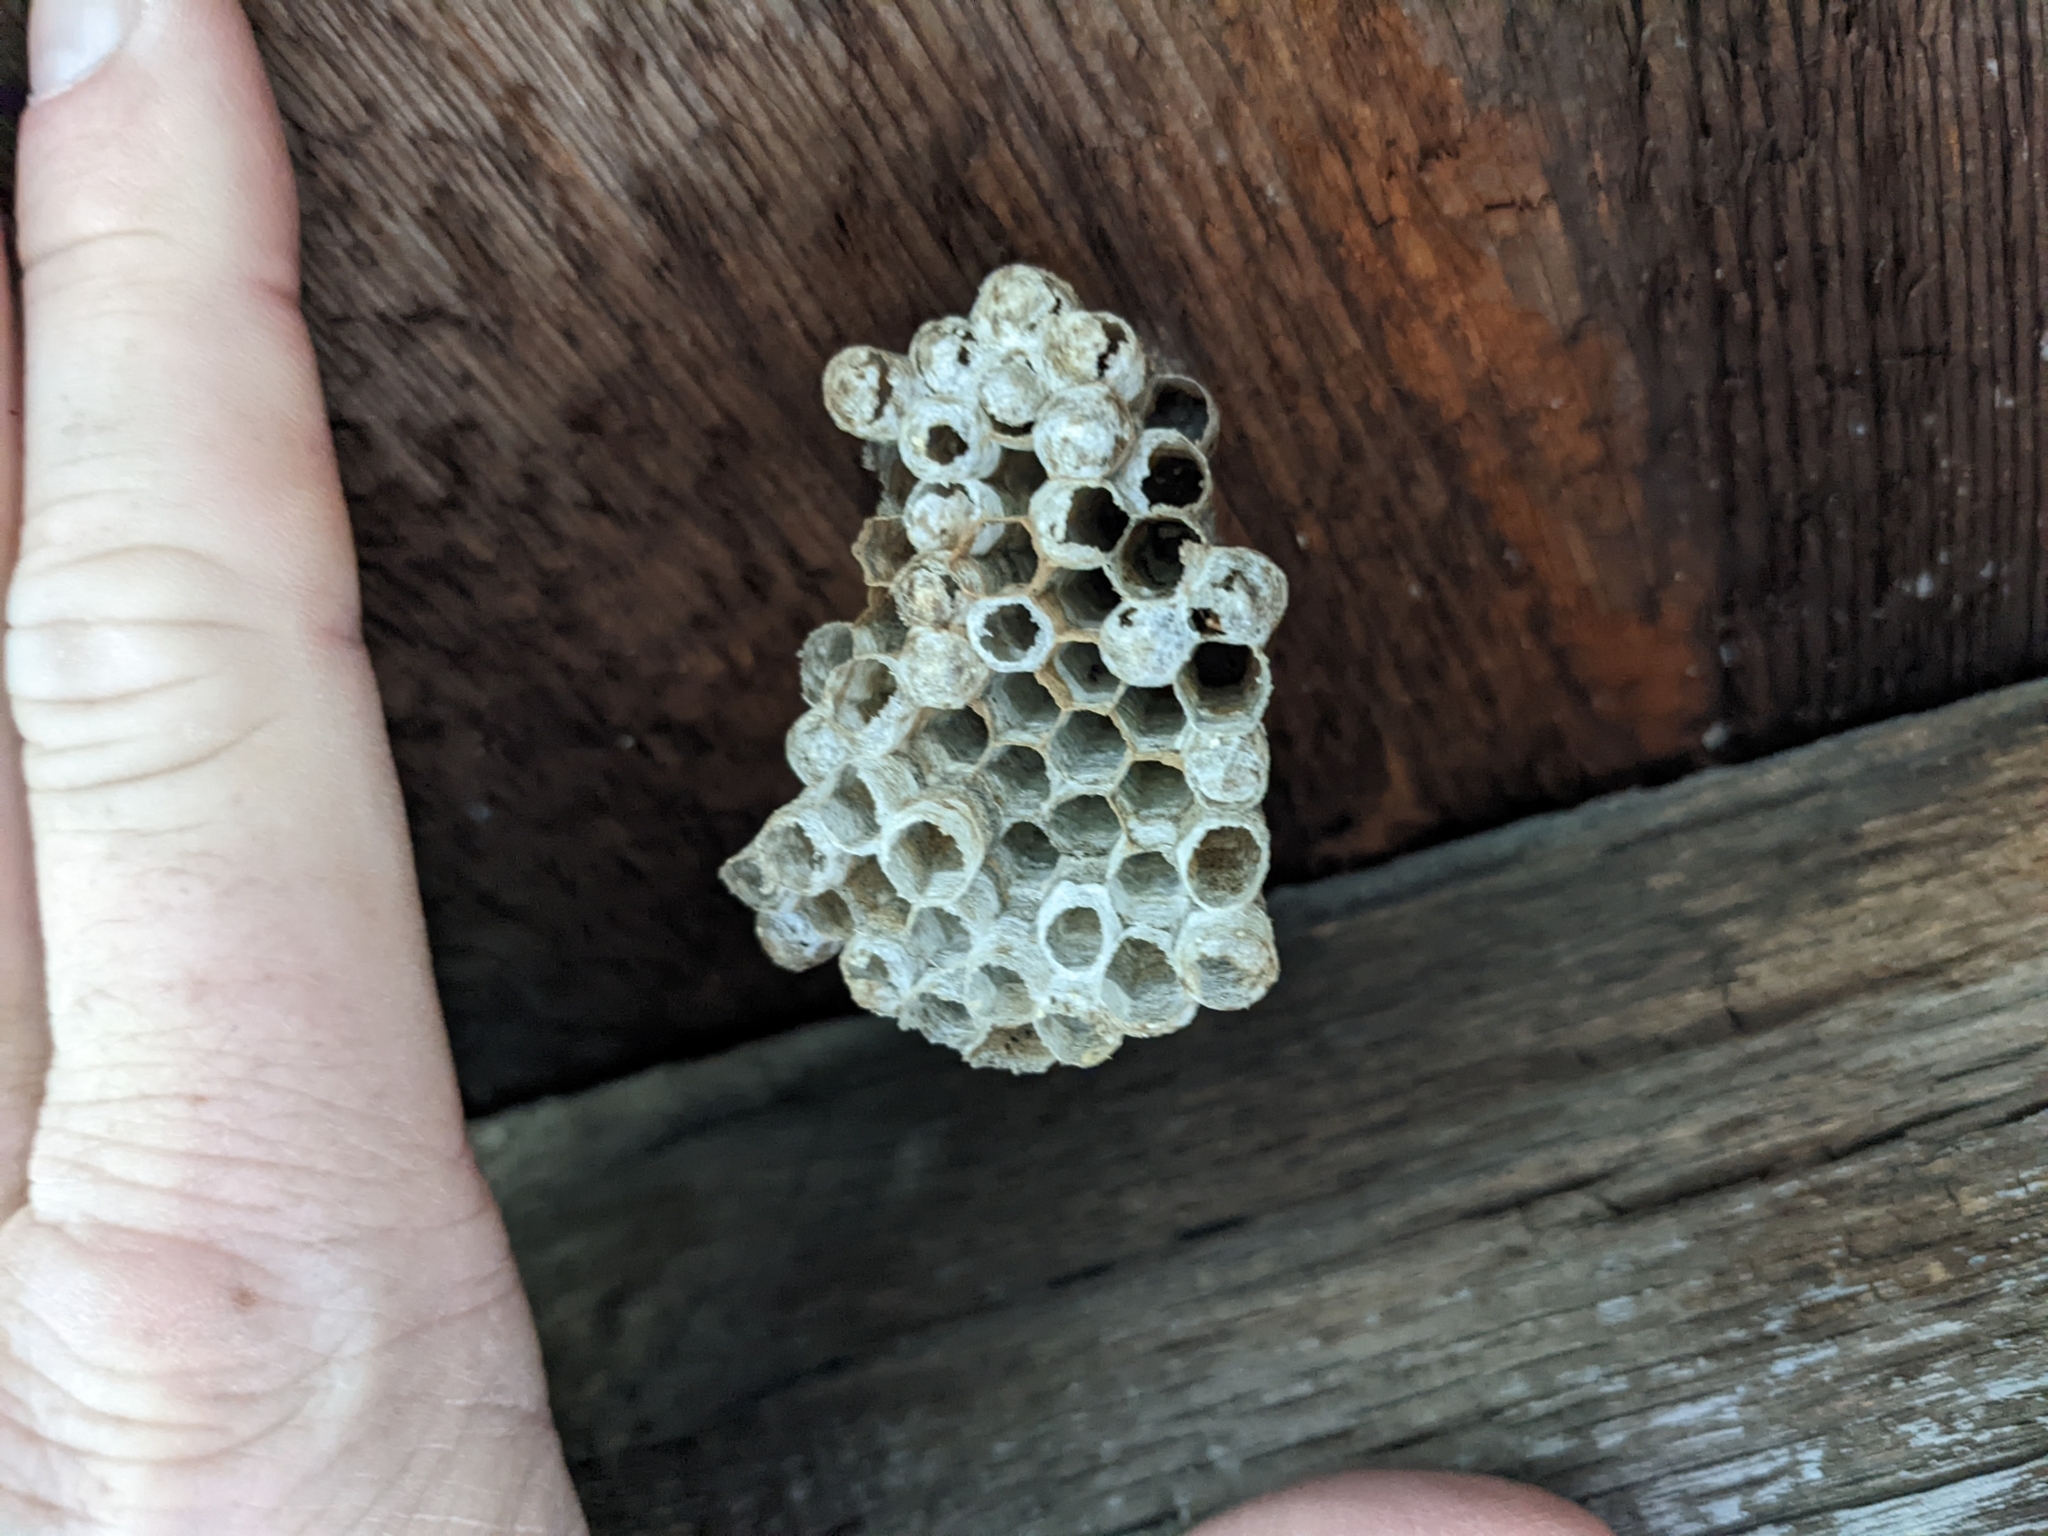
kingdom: Animalia
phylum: Arthropoda
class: Insecta
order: Hymenoptera
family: Eumenidae
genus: Polistes
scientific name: Polistes
